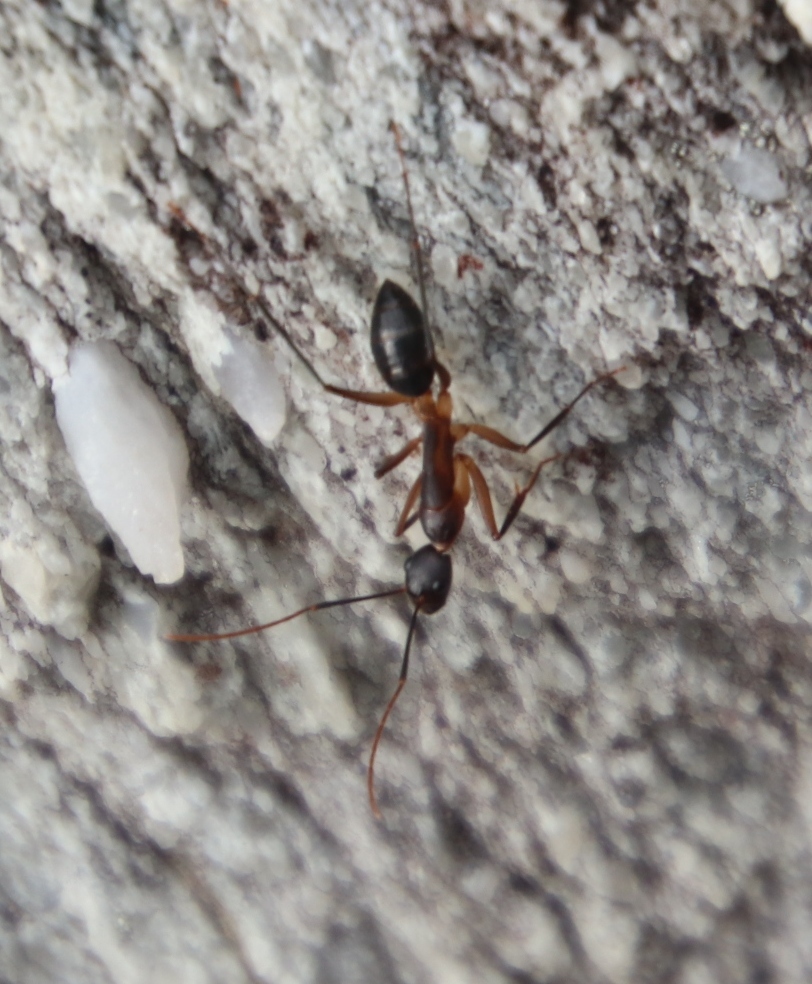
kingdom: Animalia
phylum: Arthropoda
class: Insecta
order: Hymenoptera
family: Formicidae
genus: Camponotus
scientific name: Camponotus baynei
